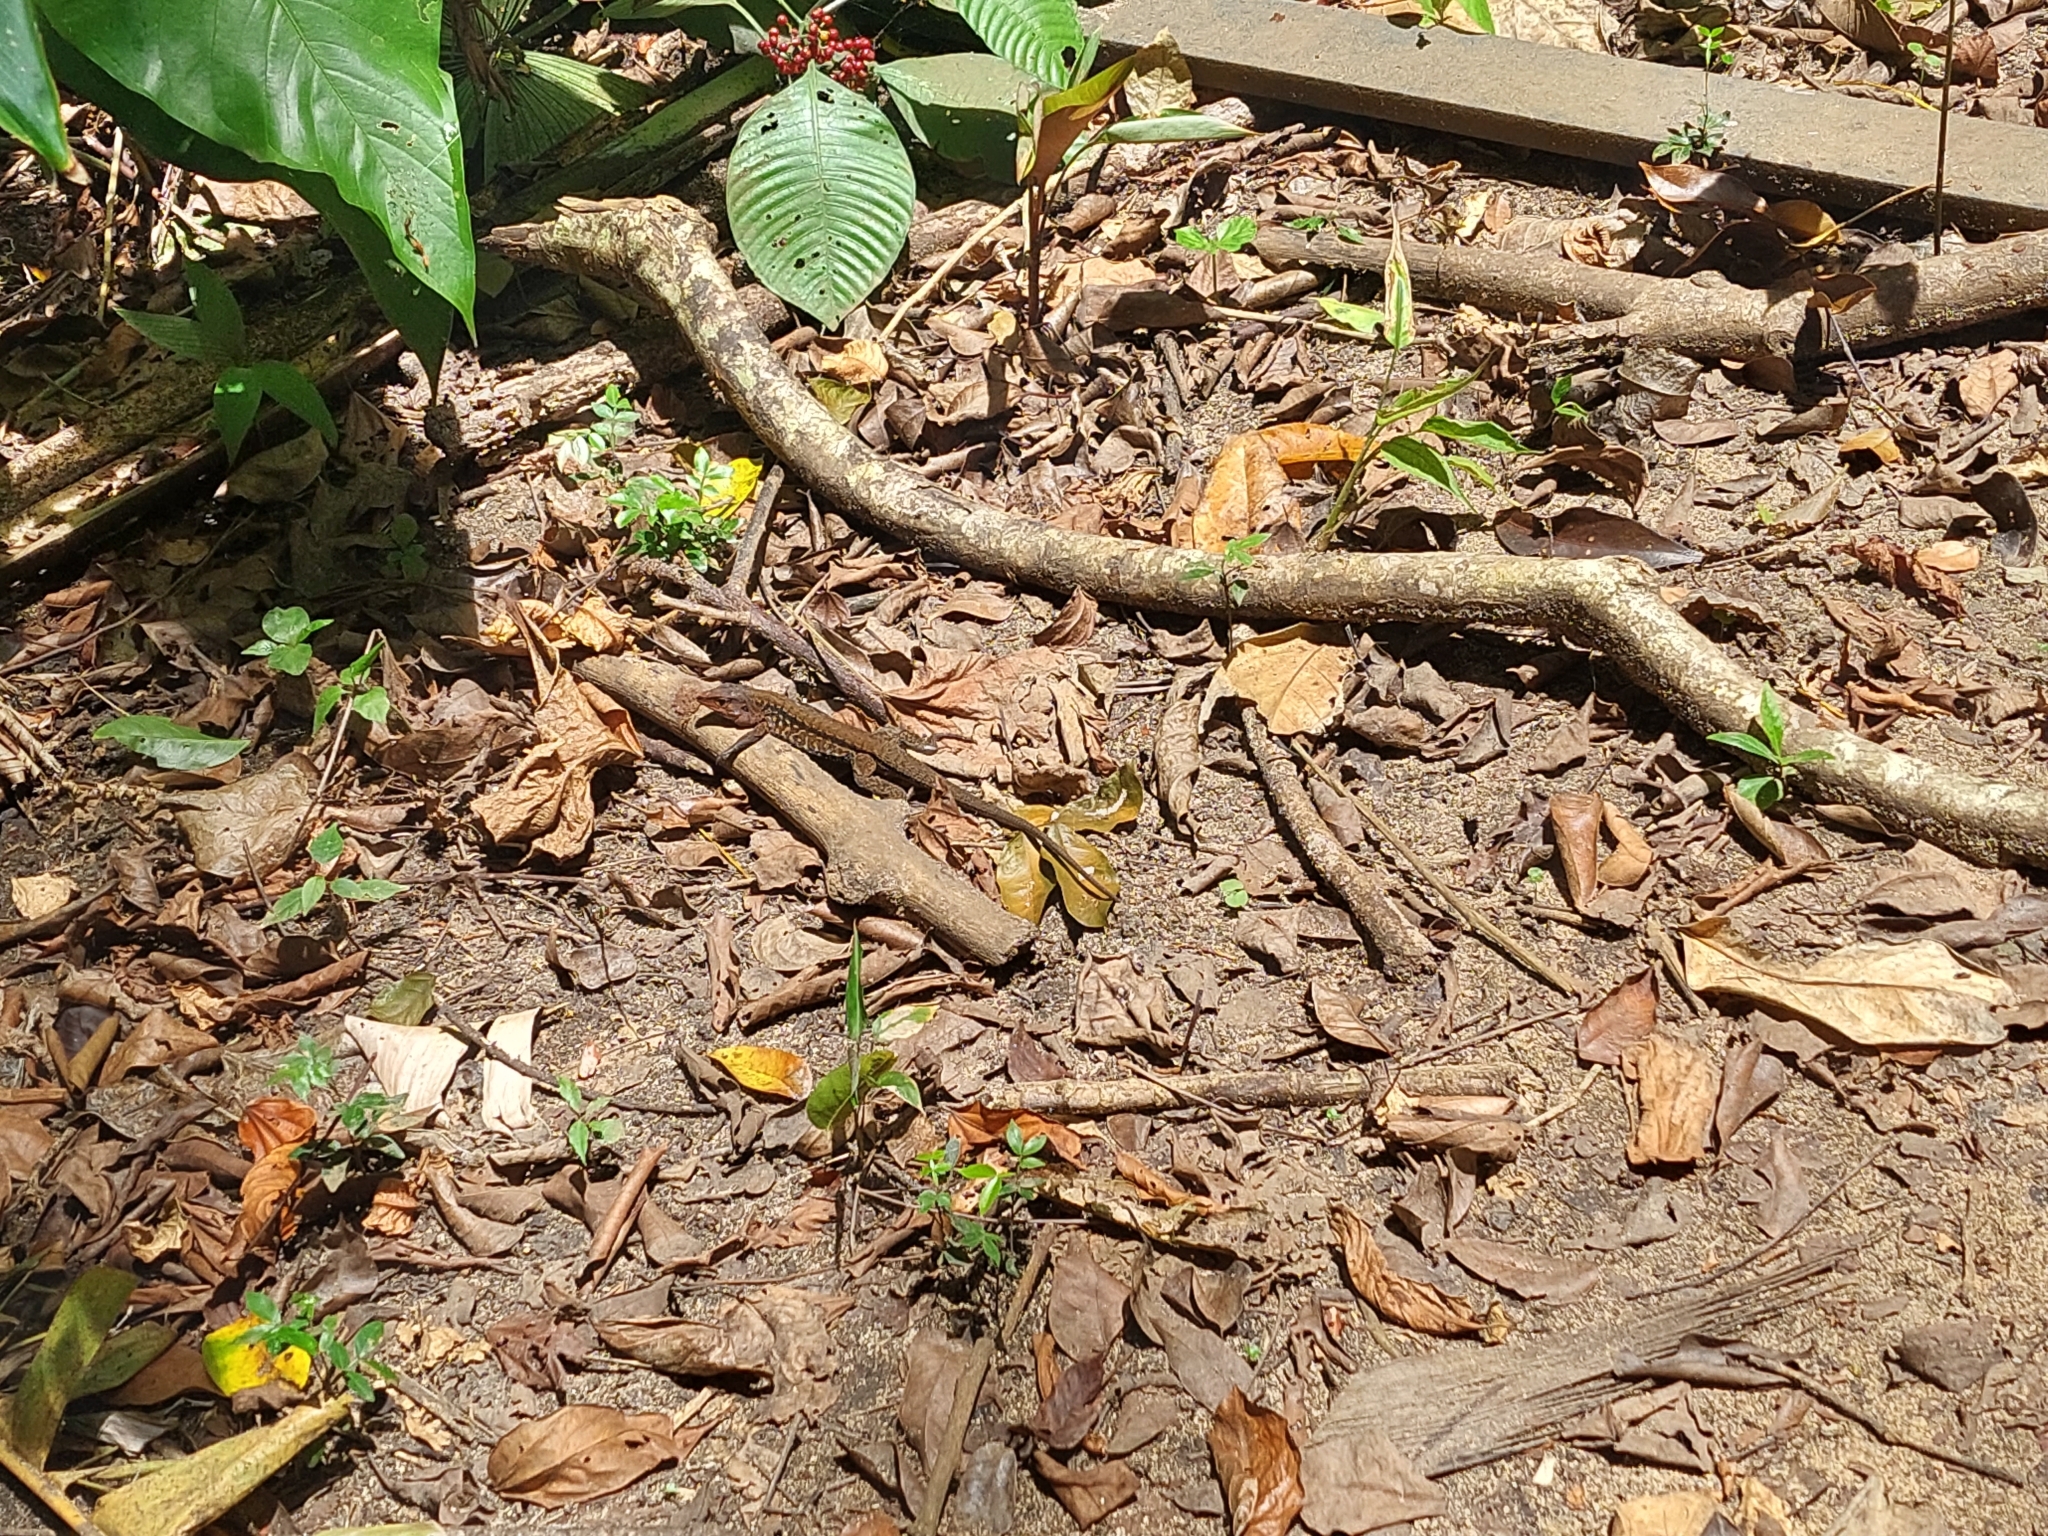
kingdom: Animalia
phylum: Chordata
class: Squamata
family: Teiidae
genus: Holcosus
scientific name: Holcosus festivus
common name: Middle american ameiva
